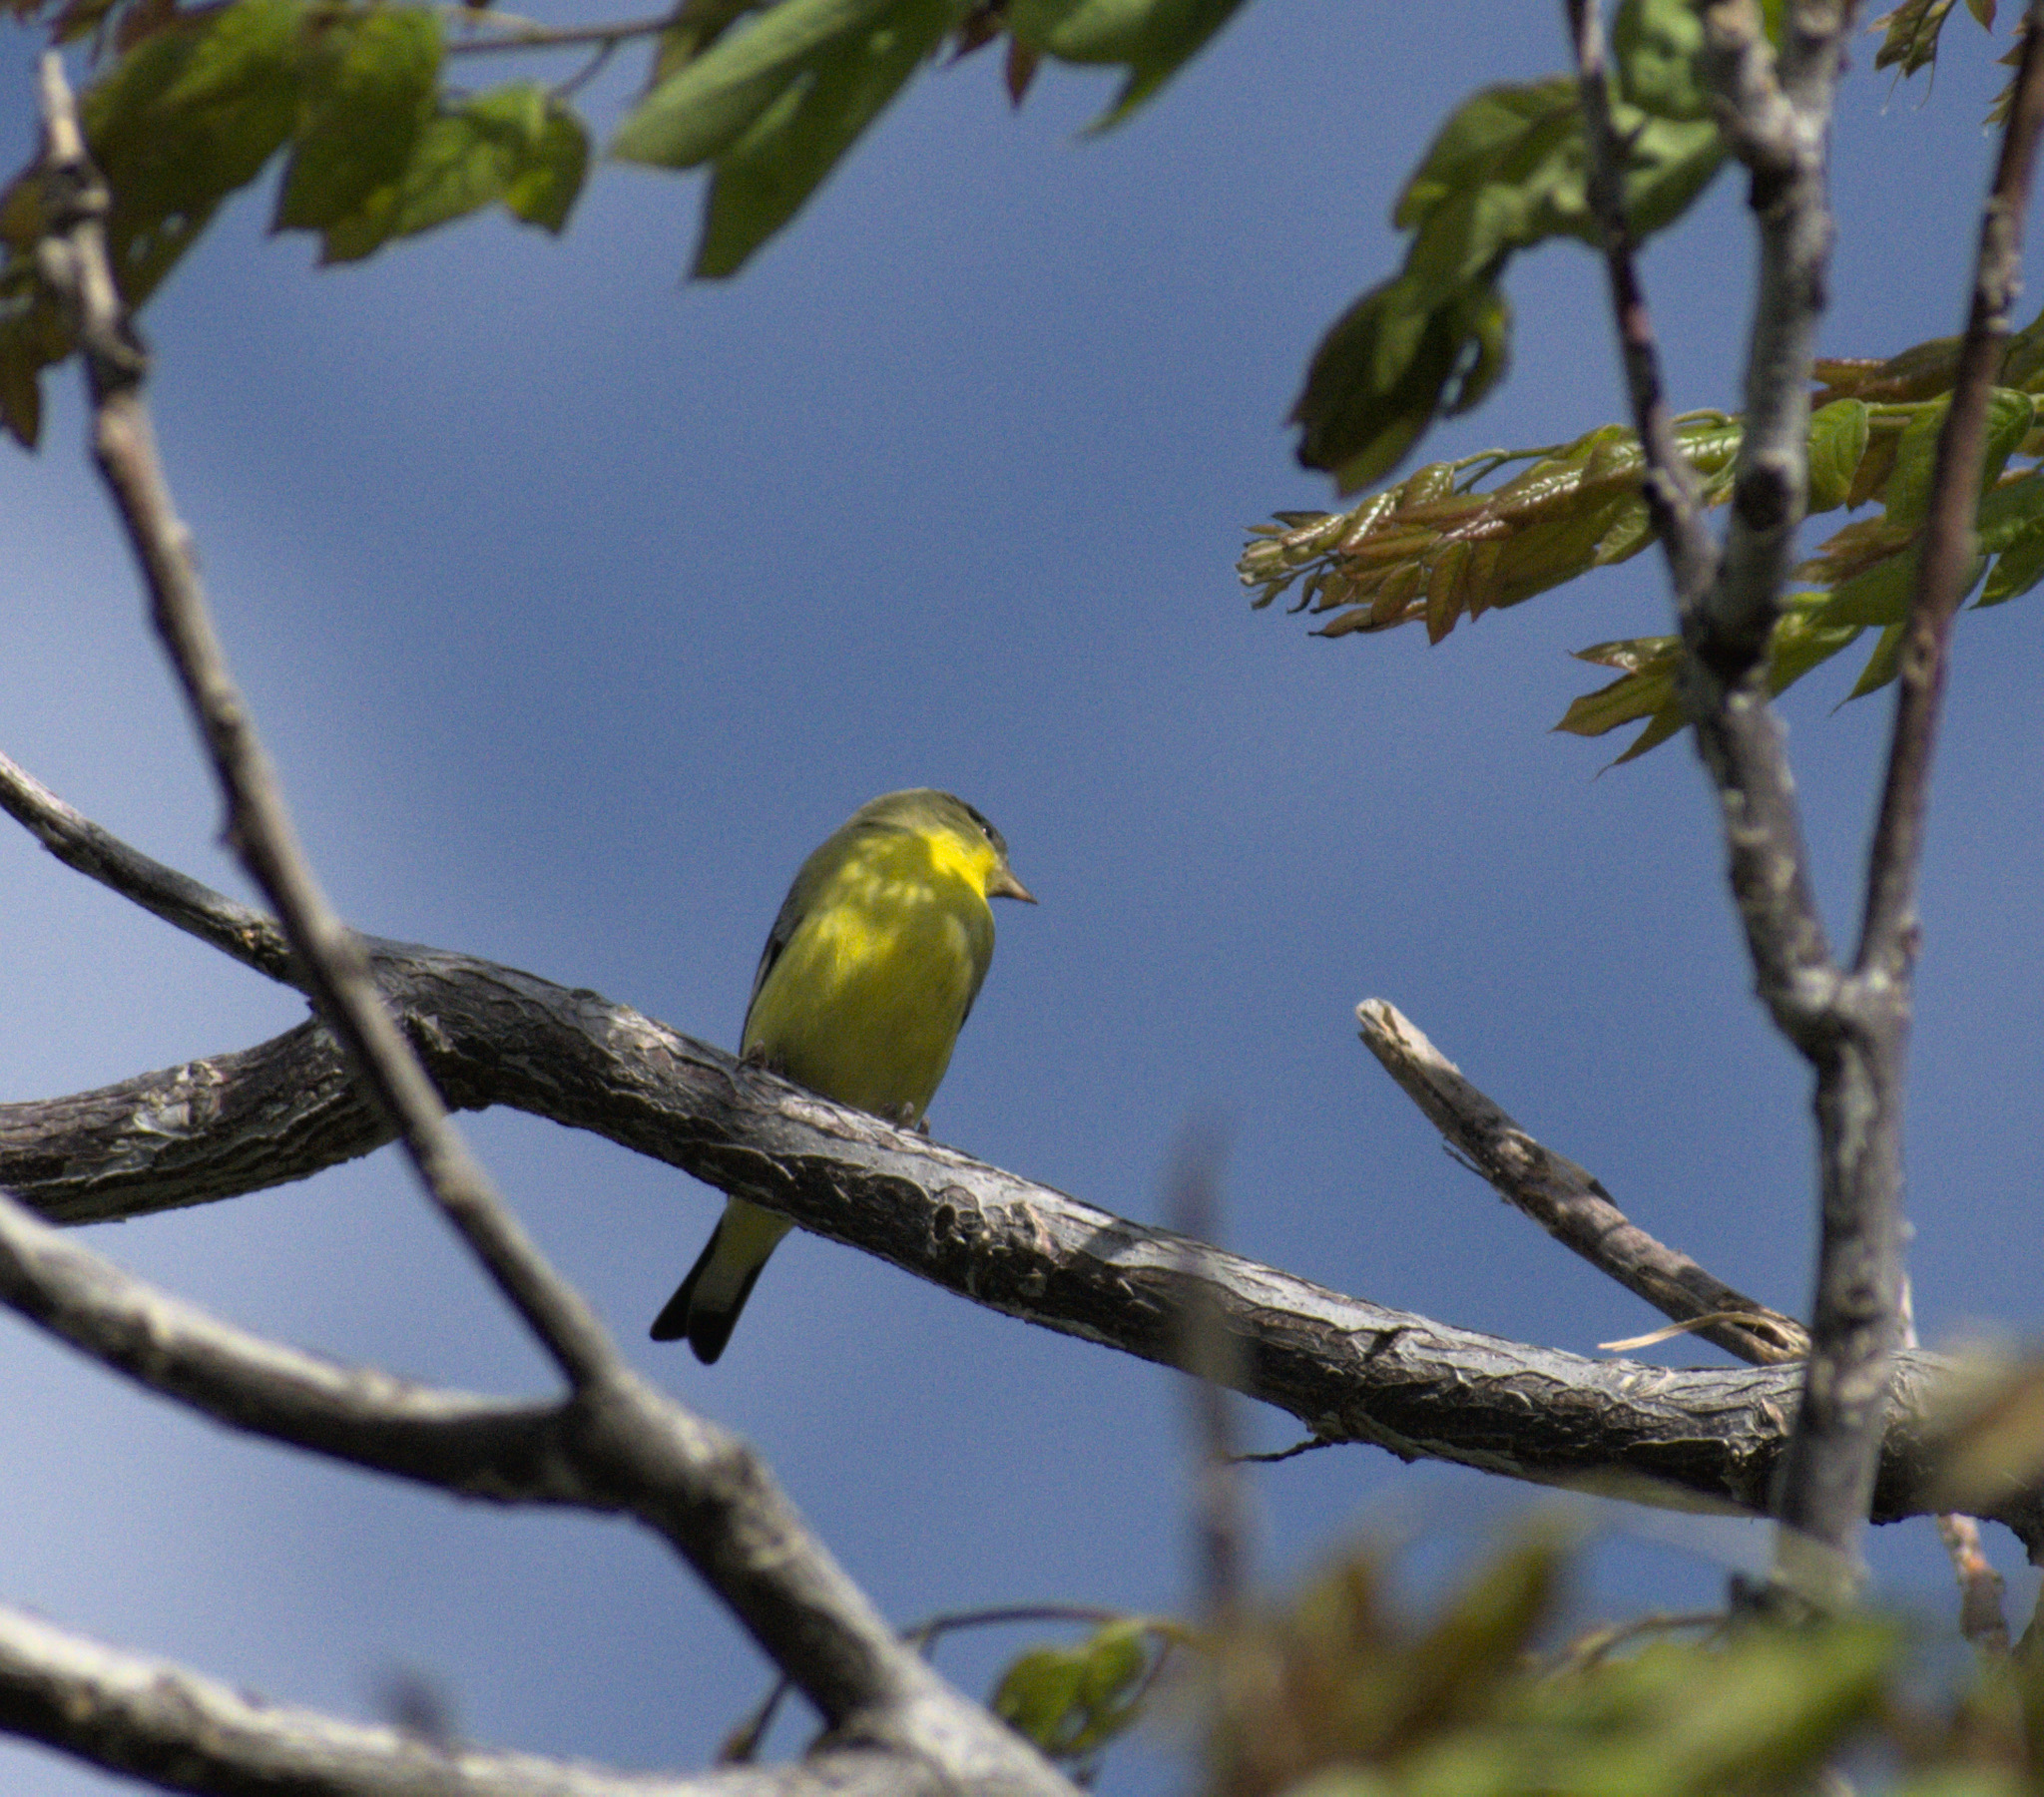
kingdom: Animalia
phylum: Chordata
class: Aves
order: Passeriformes
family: Fringillidae
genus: Spinus
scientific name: Spinus psaltria
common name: Lesser goldfinch
